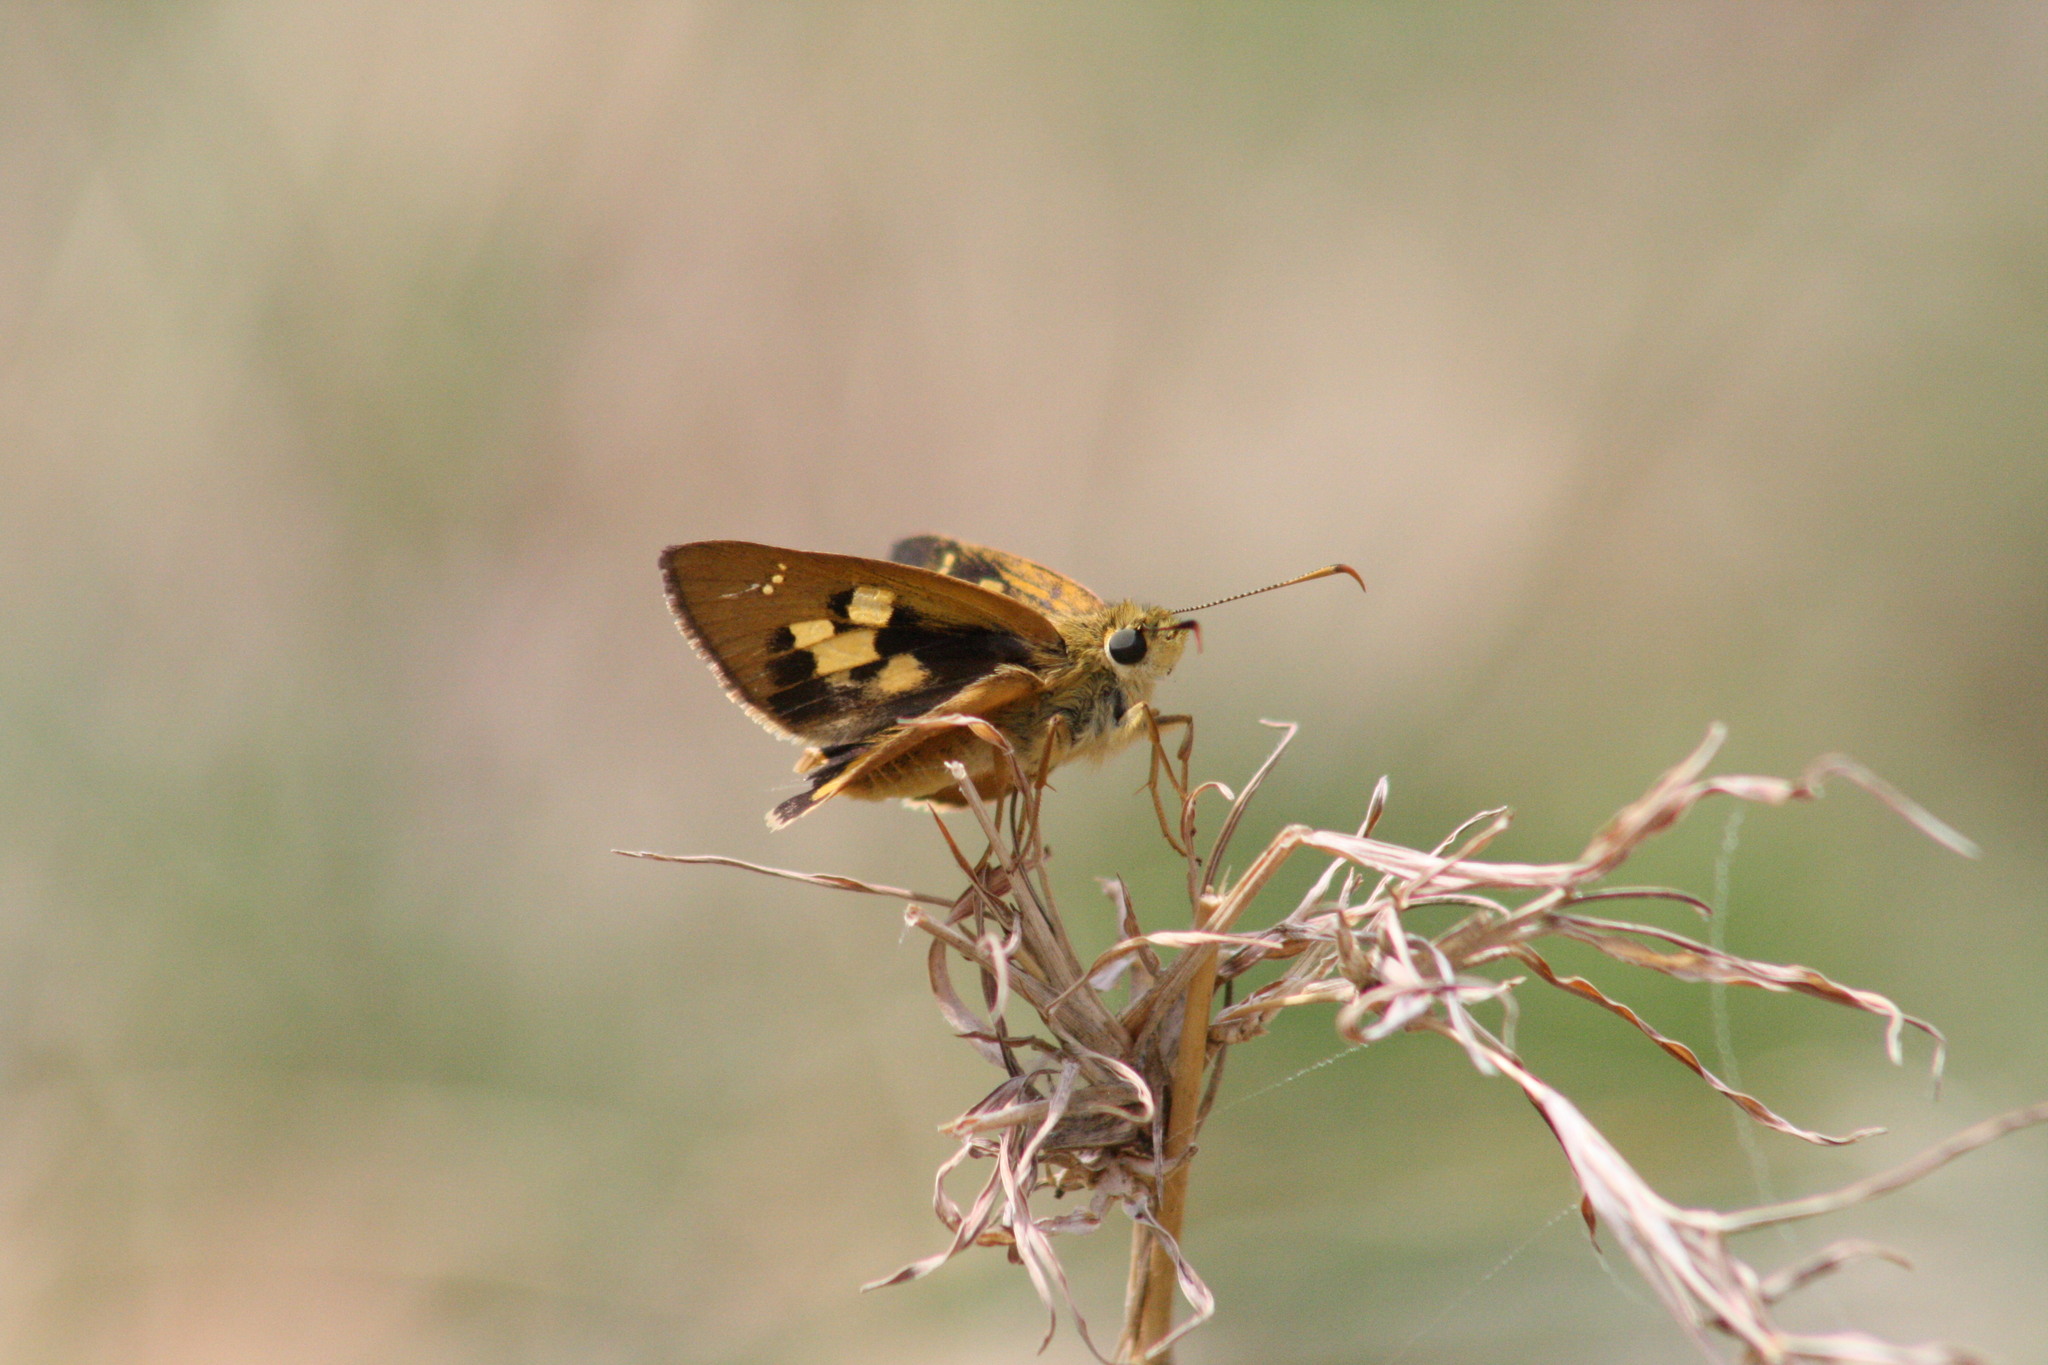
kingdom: Animalia
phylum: Arthropoda
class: Insecta
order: Lepidoptera
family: Hesperiidae
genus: Trapezites
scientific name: Trapezites eliena
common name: Eliena skipper
